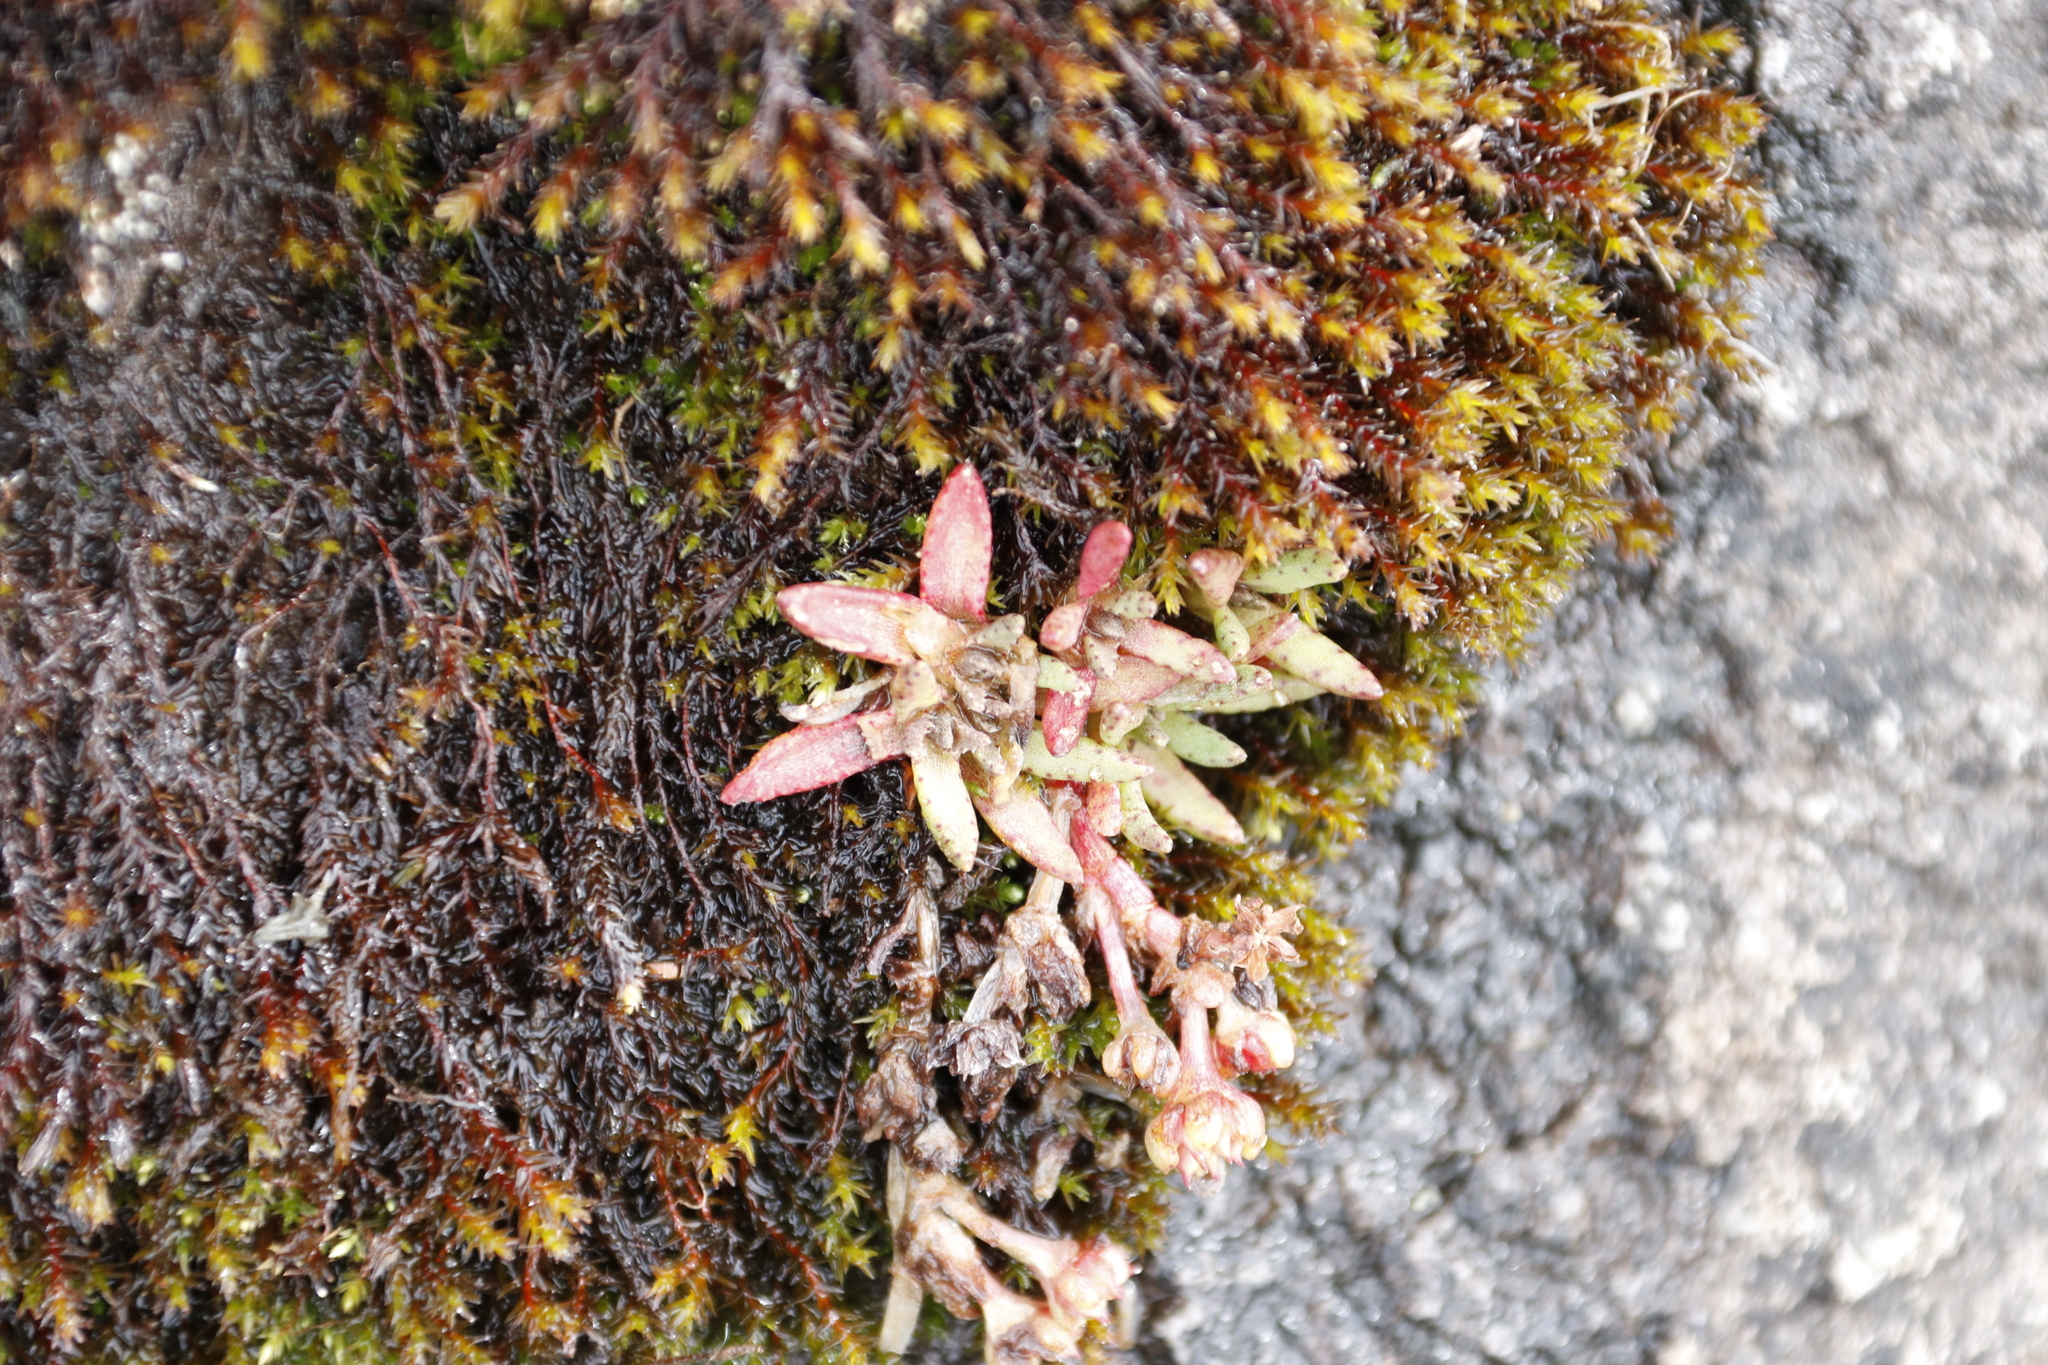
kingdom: Plantae
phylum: Tracheophyta
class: Magnoliopsida
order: Saxifragales
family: Crassulaceae
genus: Crassula
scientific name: Crassula peploides
